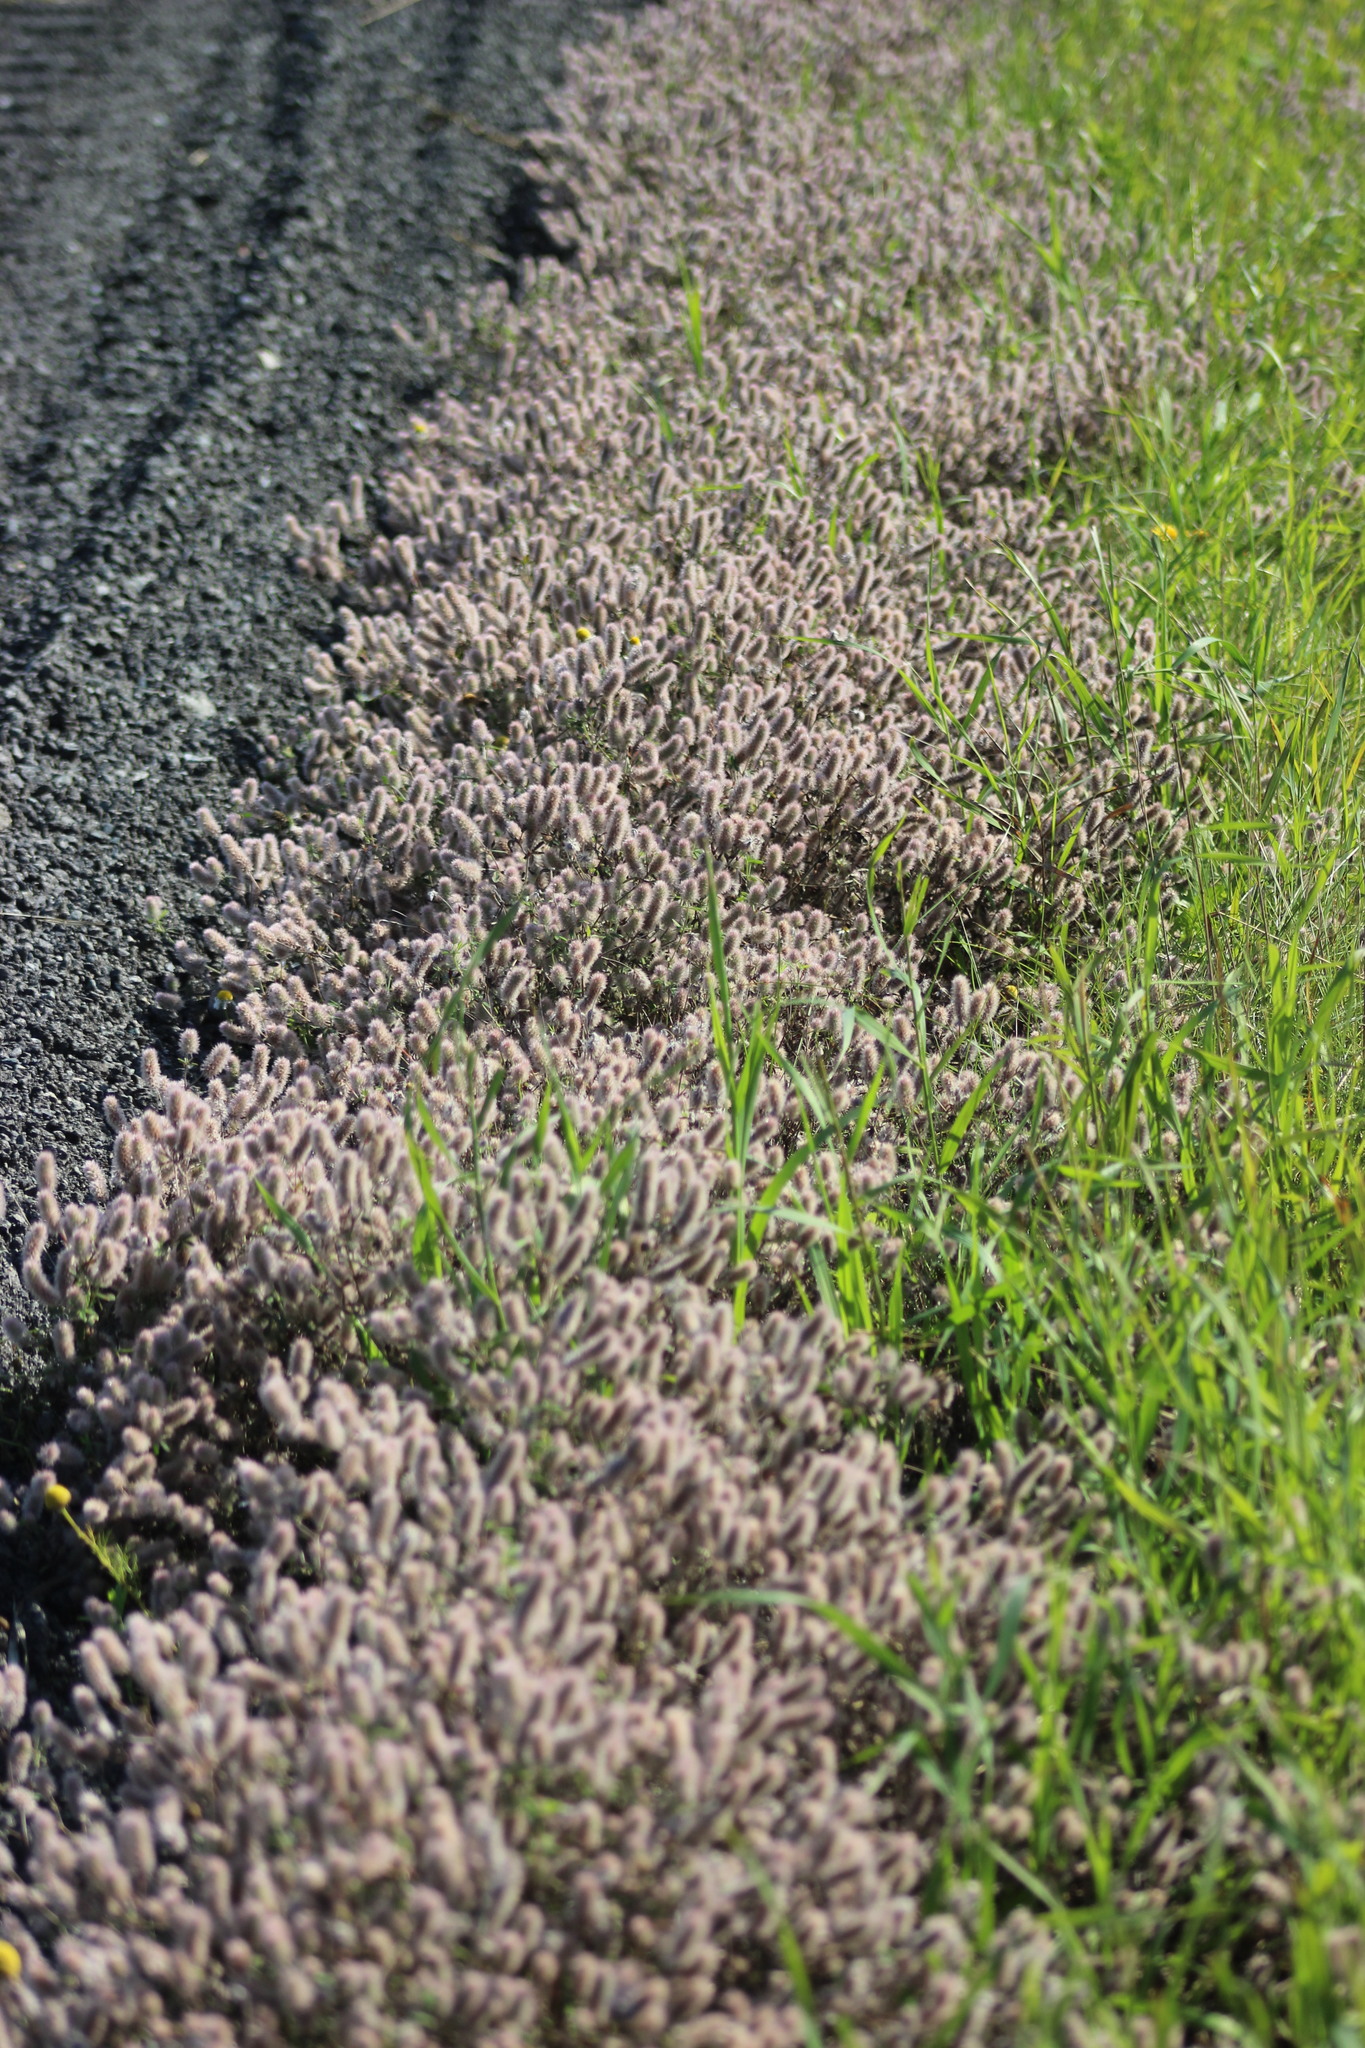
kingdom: Plantae
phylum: Tracheophyta
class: Magnoliopsida
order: Fabales
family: Fabaceae
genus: Trifolium
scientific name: Trifolium arvense
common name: Hare's-foot clover
